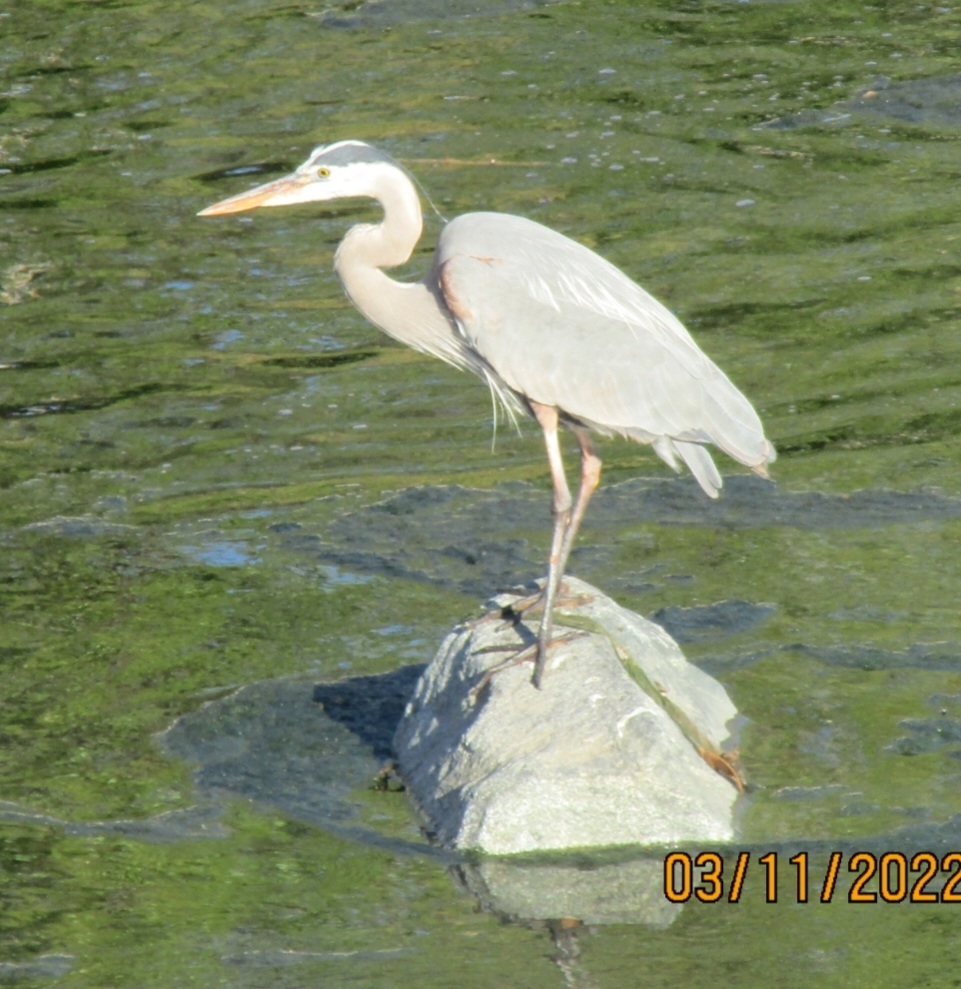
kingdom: Animalia
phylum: Chordata
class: Aves
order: Pelecaniformes
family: Ardeidae
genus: Ardea
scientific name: Ardea herodias
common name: Great blue heron
